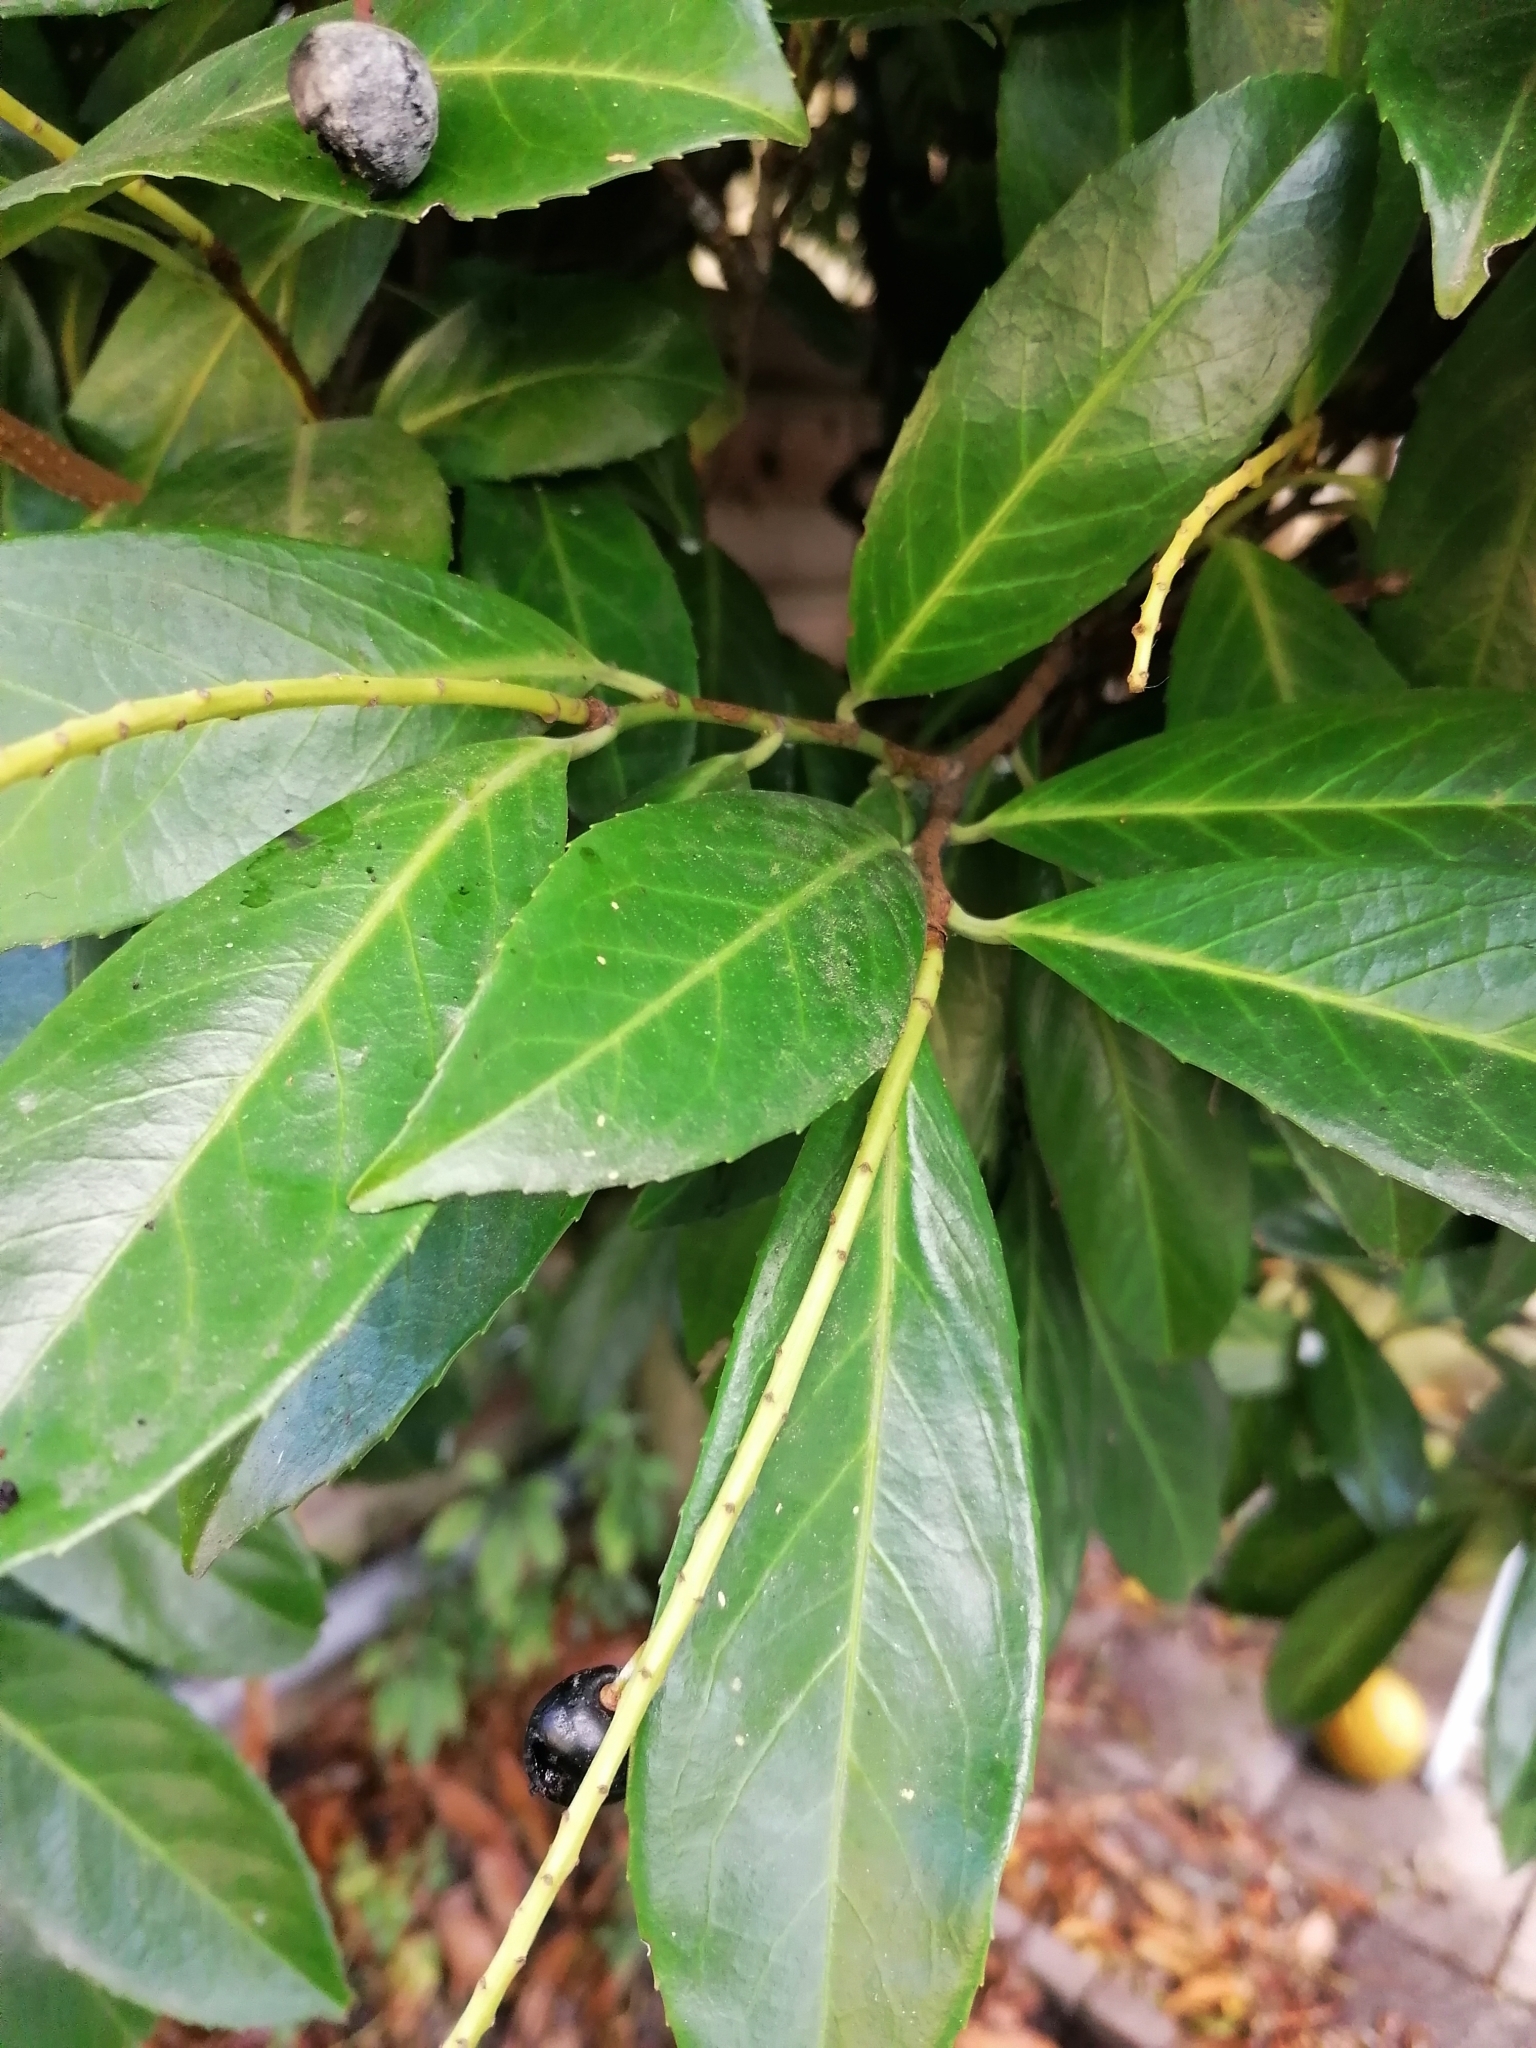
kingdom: Plantae
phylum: Tracheophyta
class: Magnoliopsida
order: Rosales
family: Rosaceae
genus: Prunus
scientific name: Prunus laurocerasus
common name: Cherry laurel
